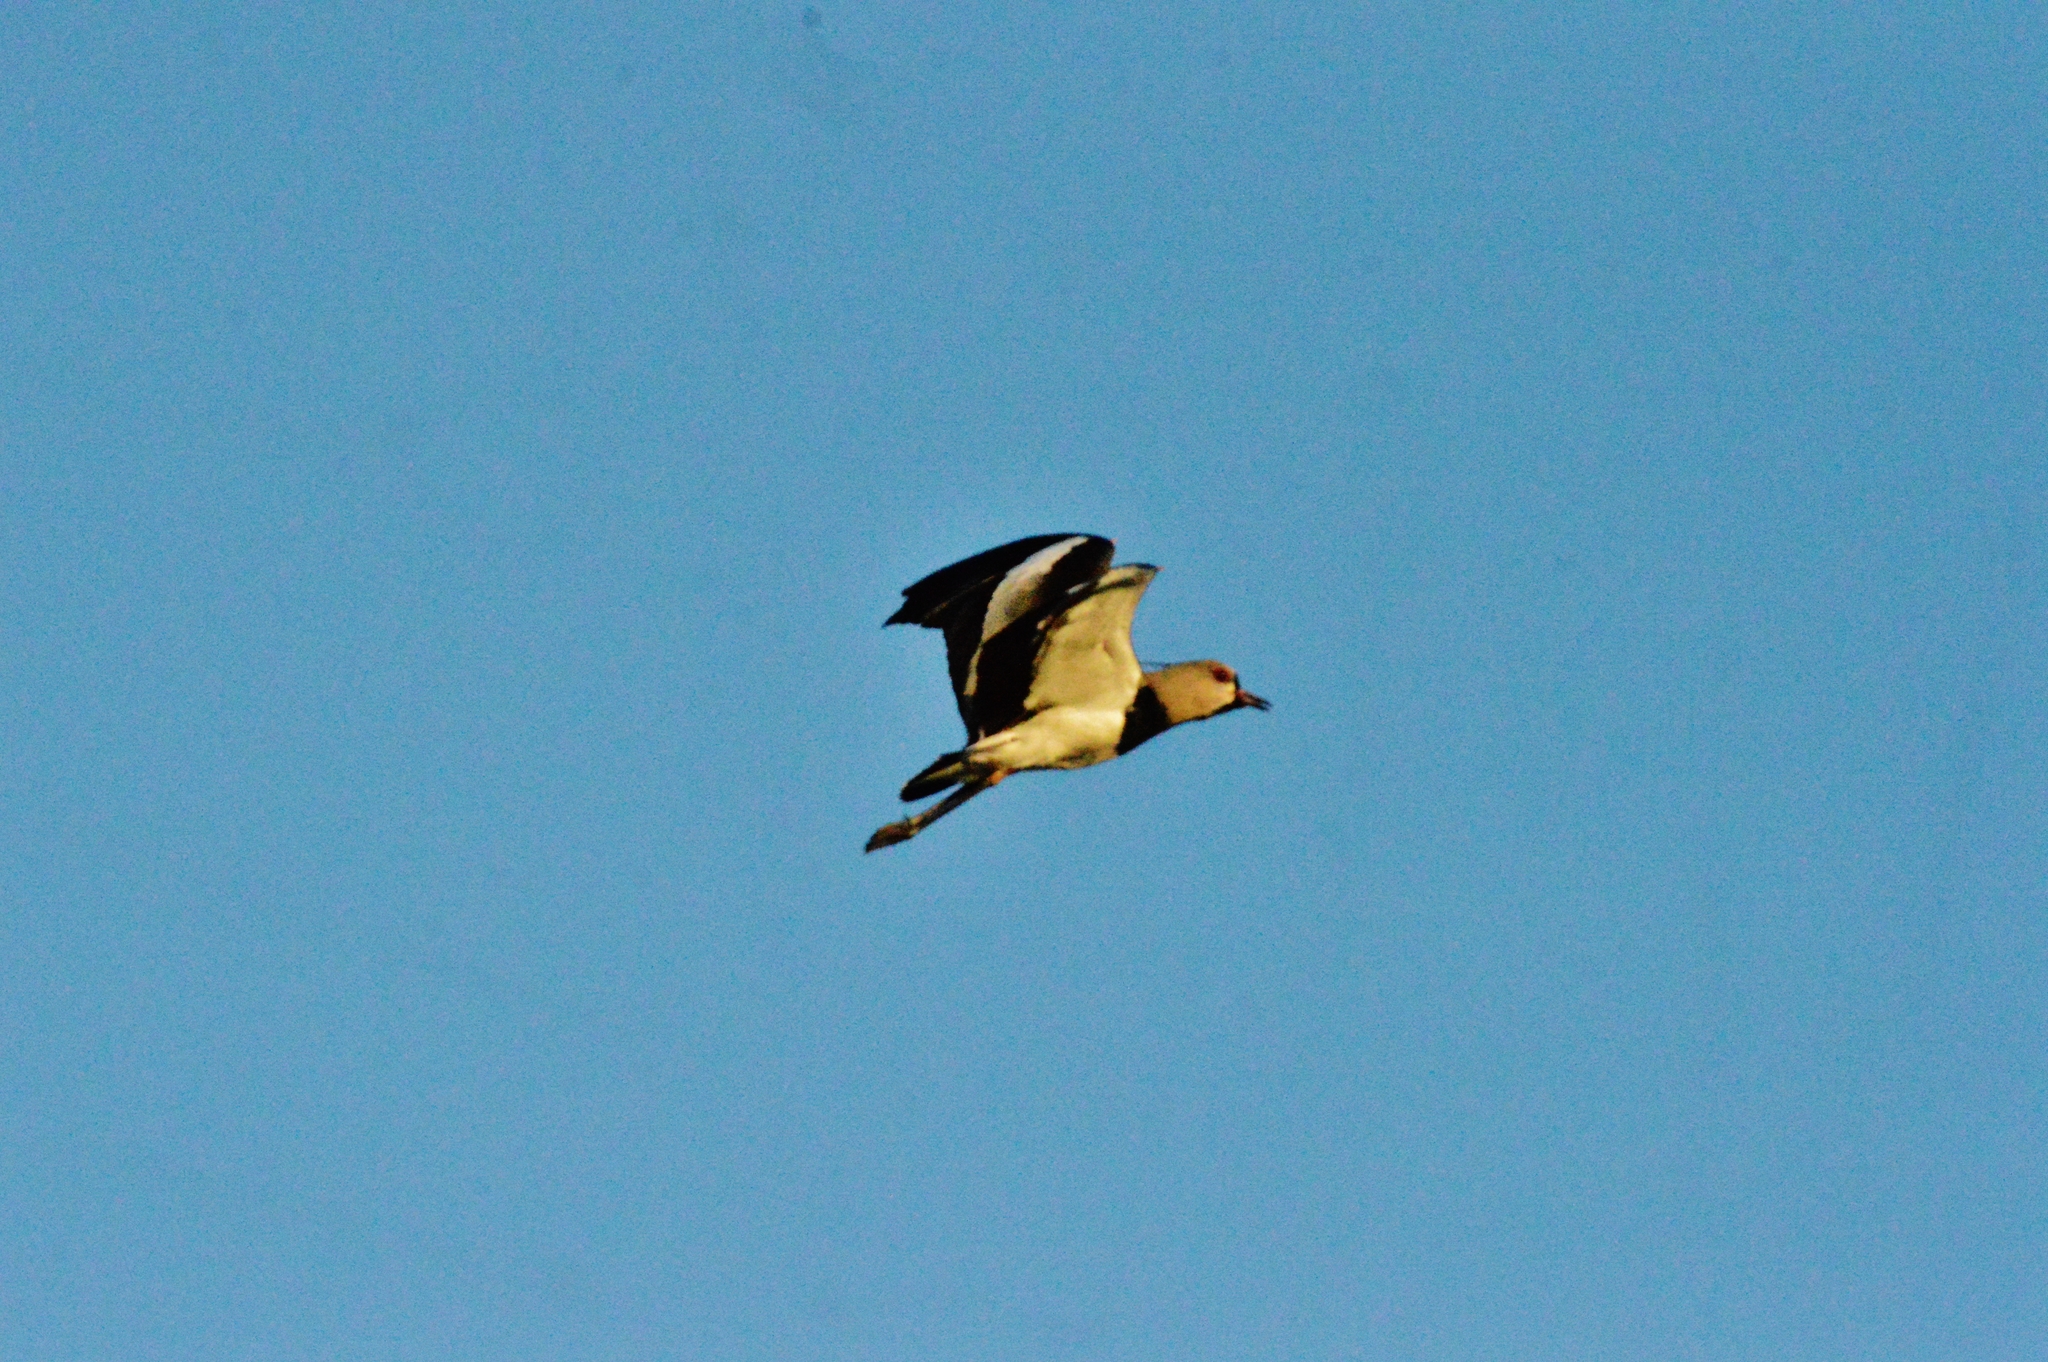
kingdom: Animalia
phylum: Chordata
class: Aves
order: Charadriiformes
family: Charadriidae
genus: Vanellus
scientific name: Vanellus chilensis
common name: Southern lapwing
